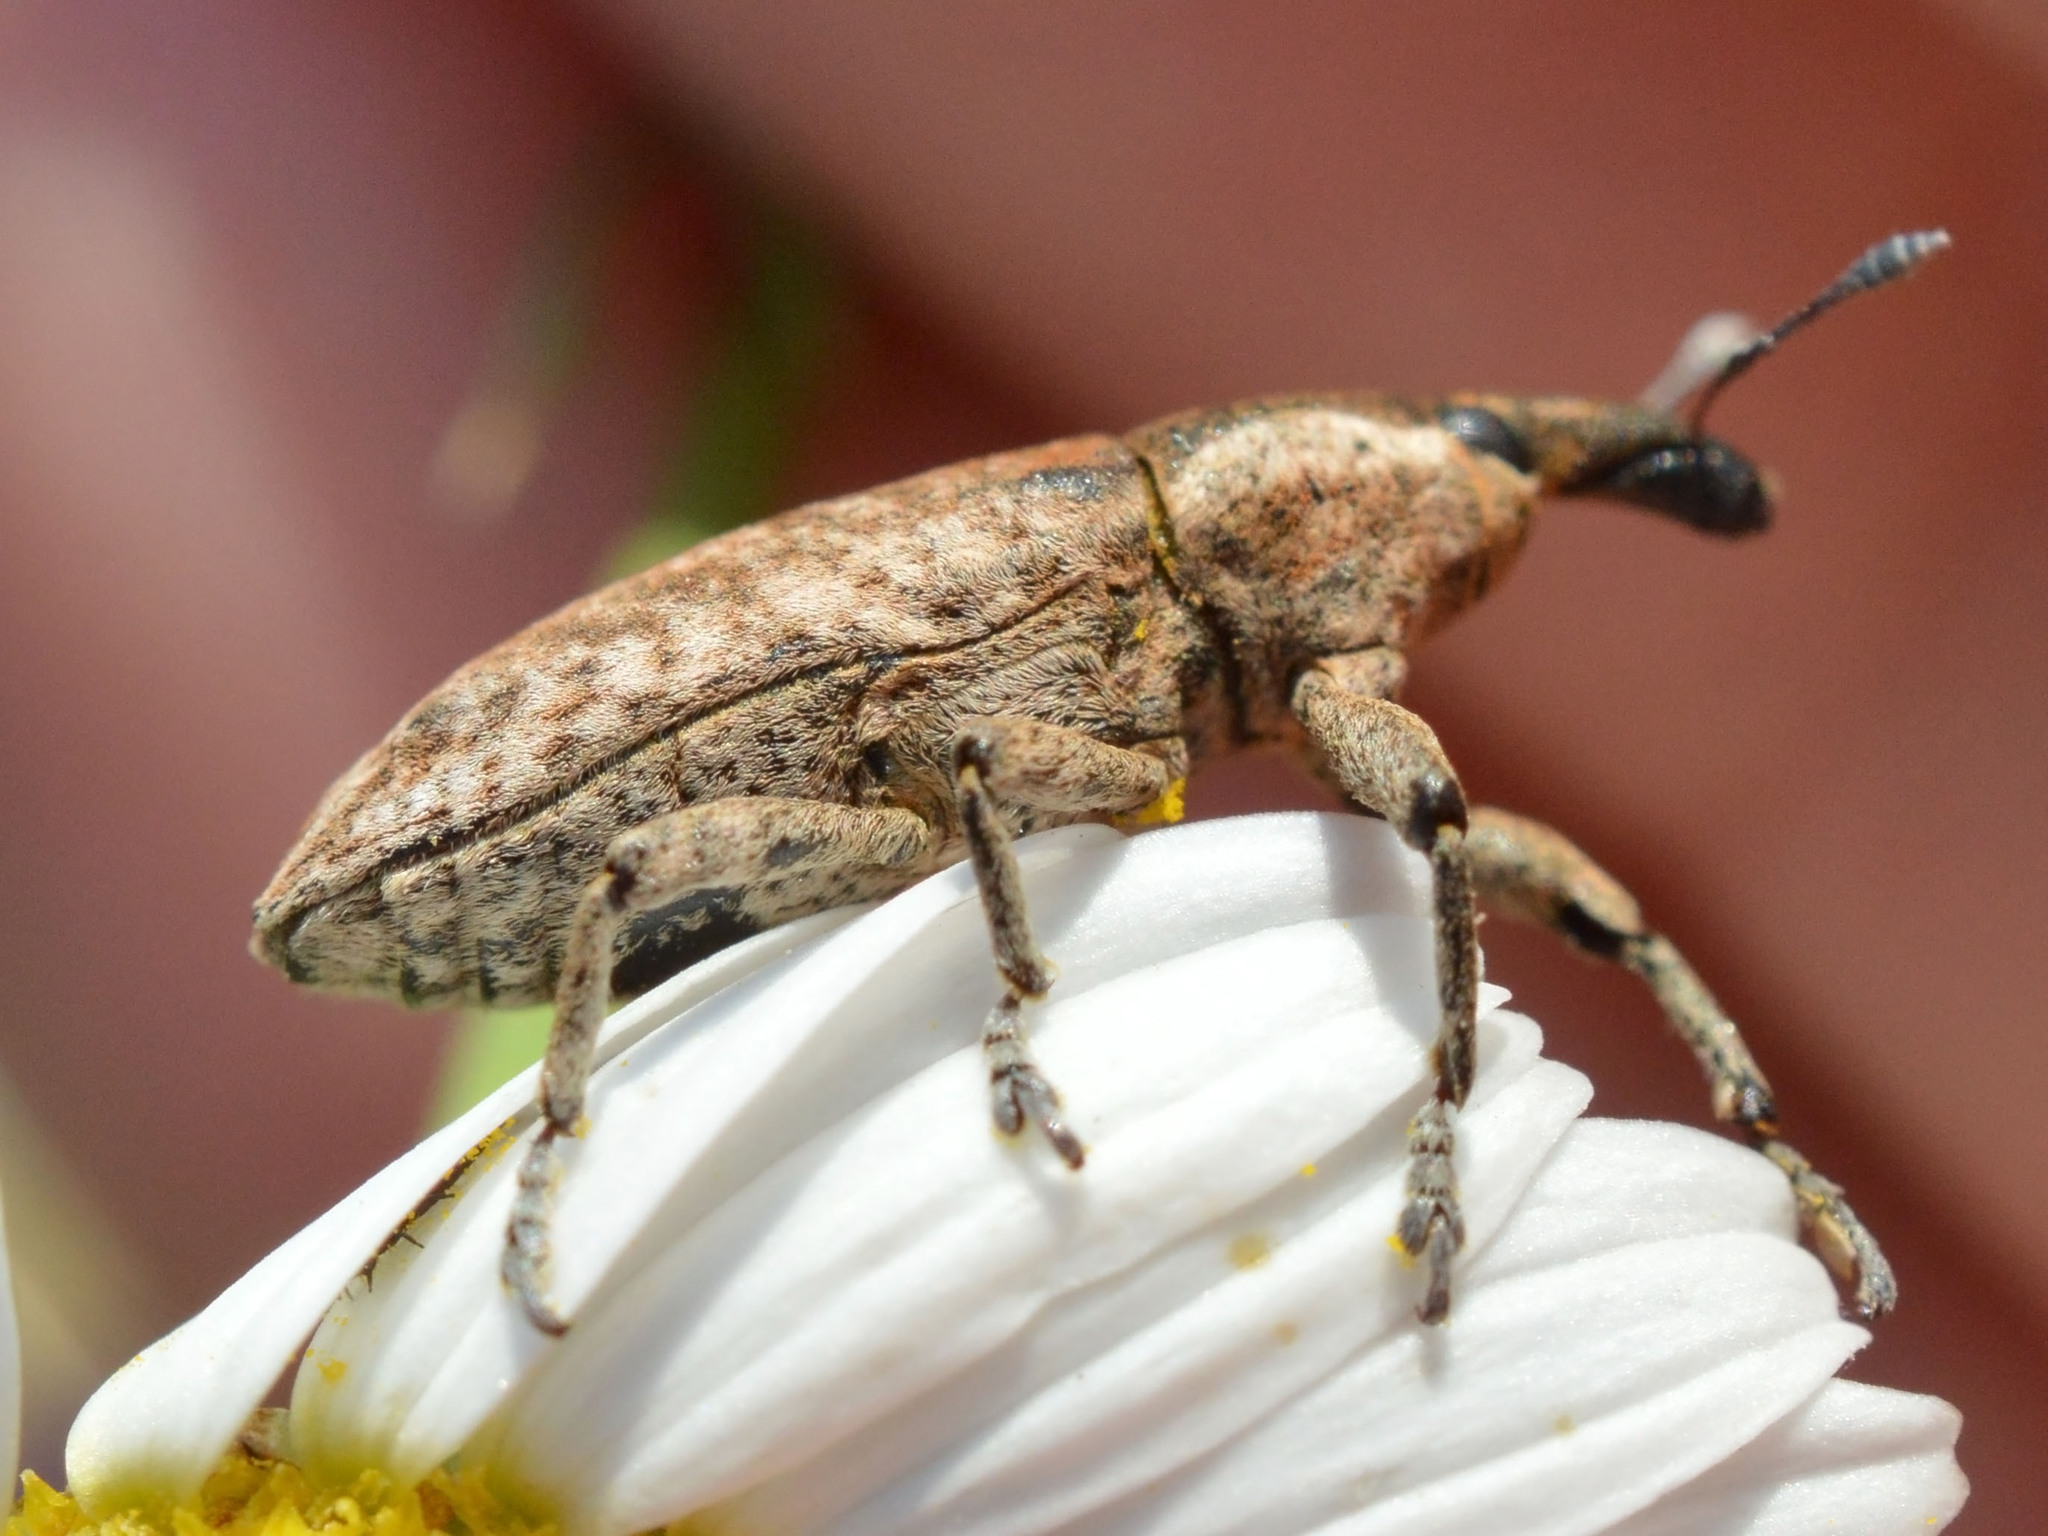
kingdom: Animalia
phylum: Arthropoda
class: Insecta
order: Coleoptera
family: Curculionidae
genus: Lixus
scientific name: Lixus myagri
